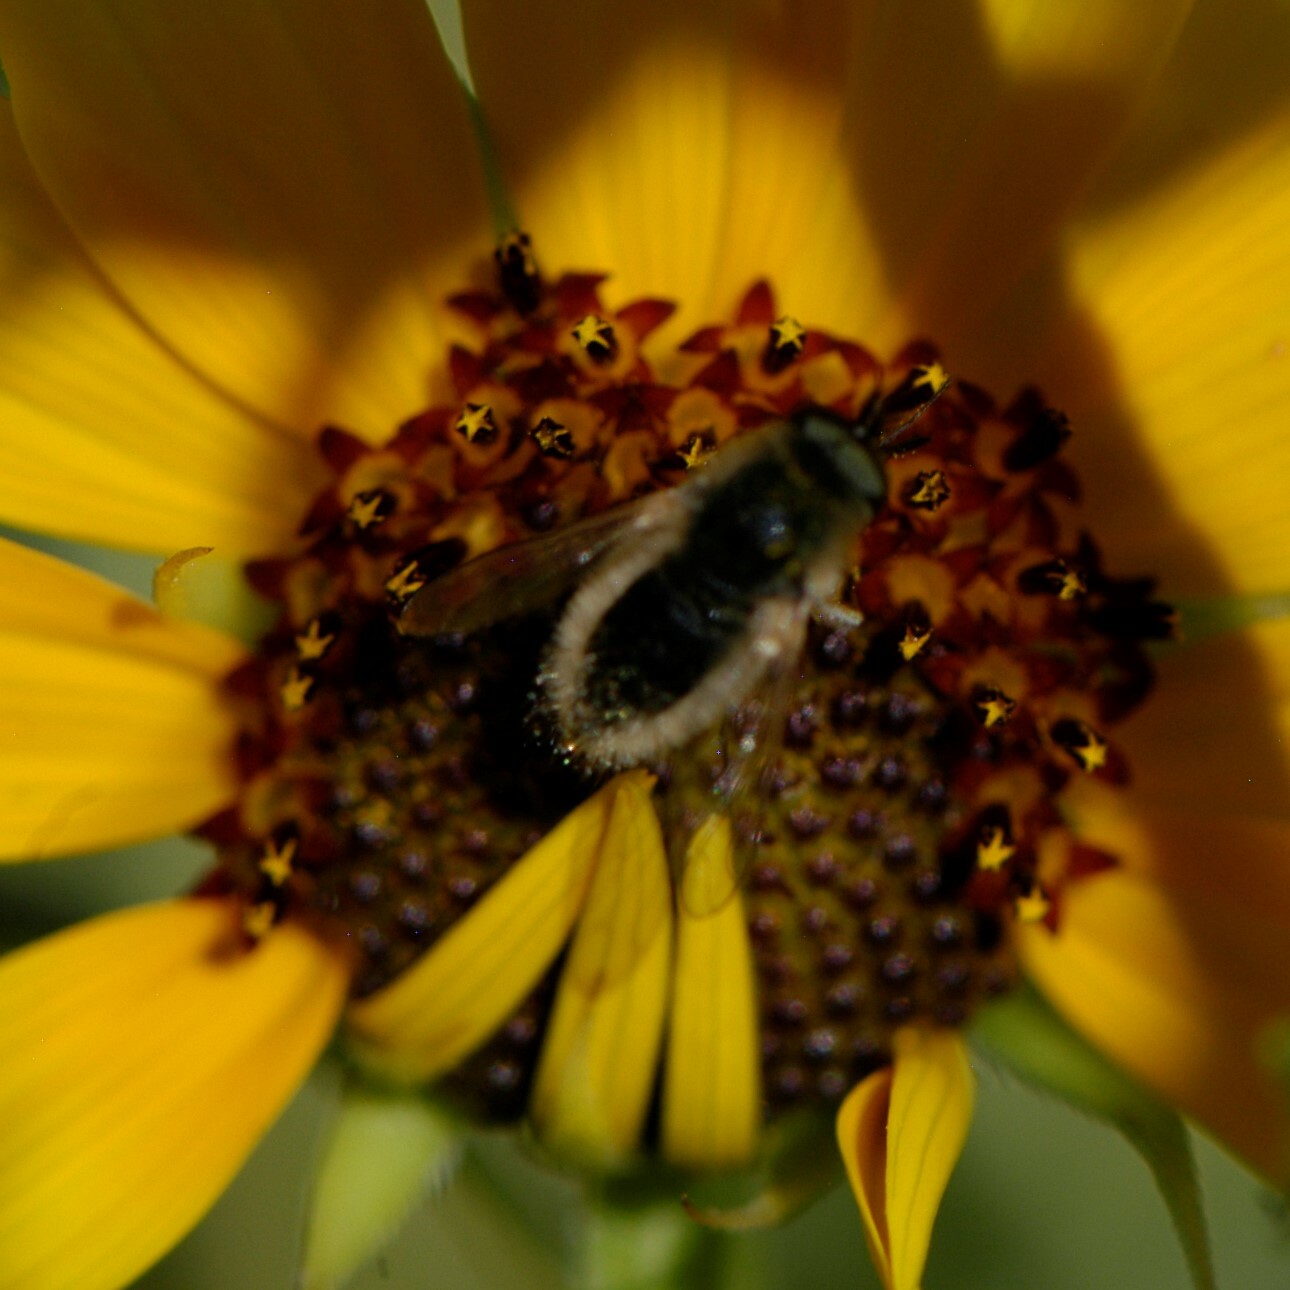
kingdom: Animalia
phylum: Arthropoda
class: Insecta
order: Diptera
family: Bombyliidae
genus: Sparnopolius
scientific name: Sparnopolius
